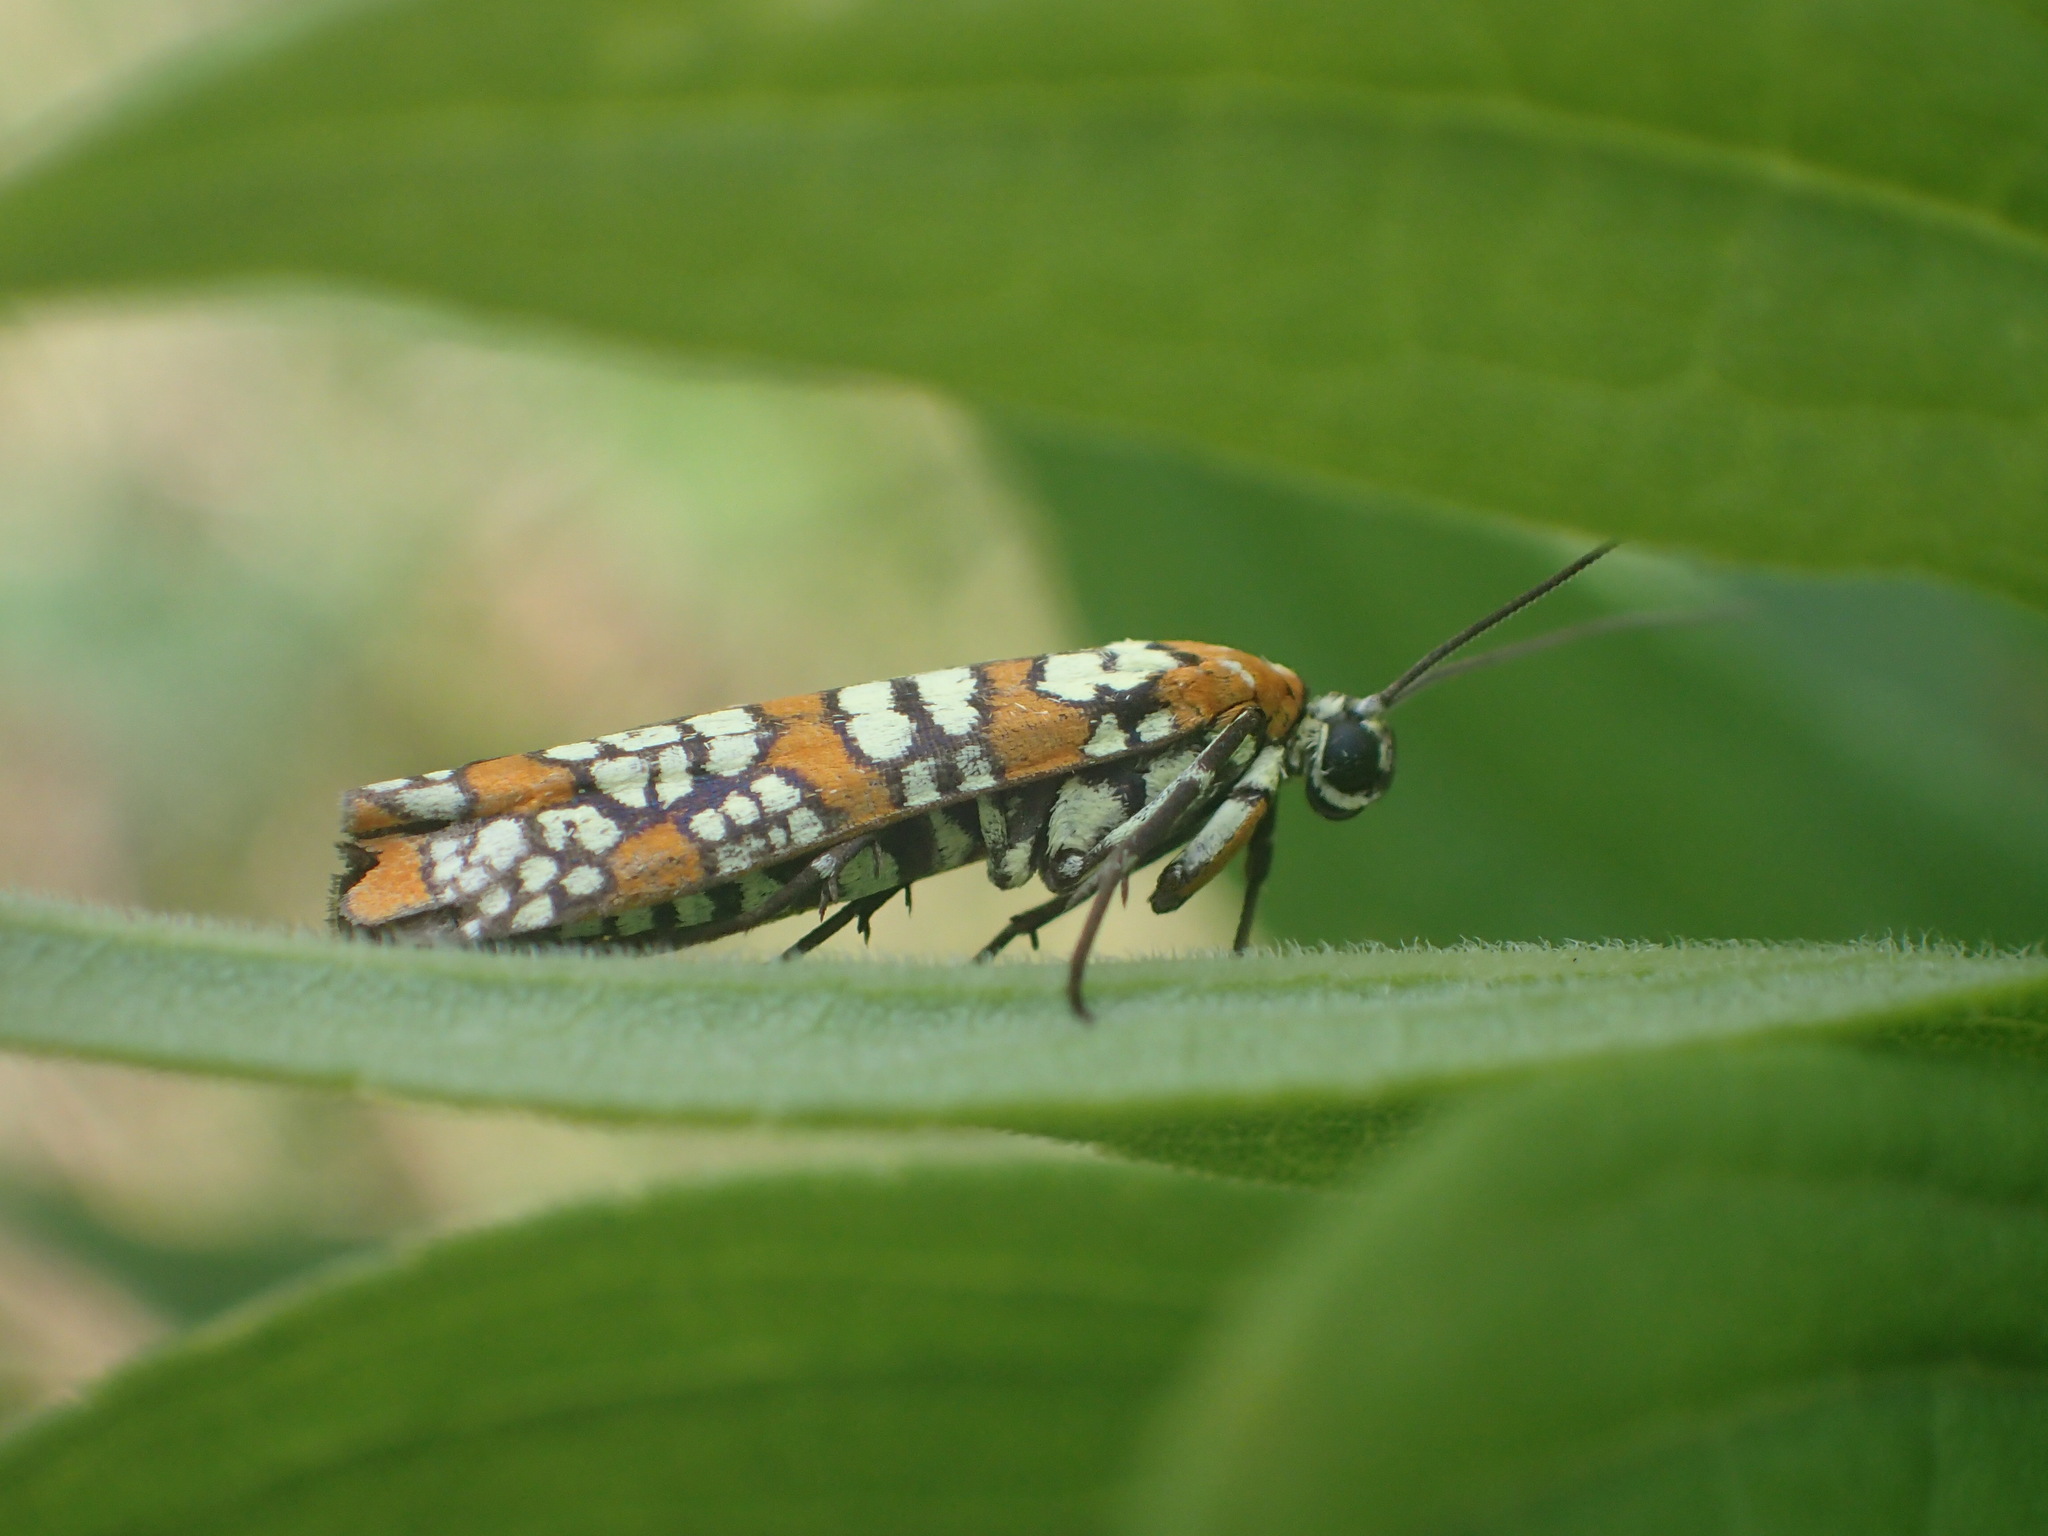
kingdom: Animalia
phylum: Arthropoda
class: Insecta
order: Lepidoptera
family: Attevidae
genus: Atteva
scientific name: Atteva punctella
